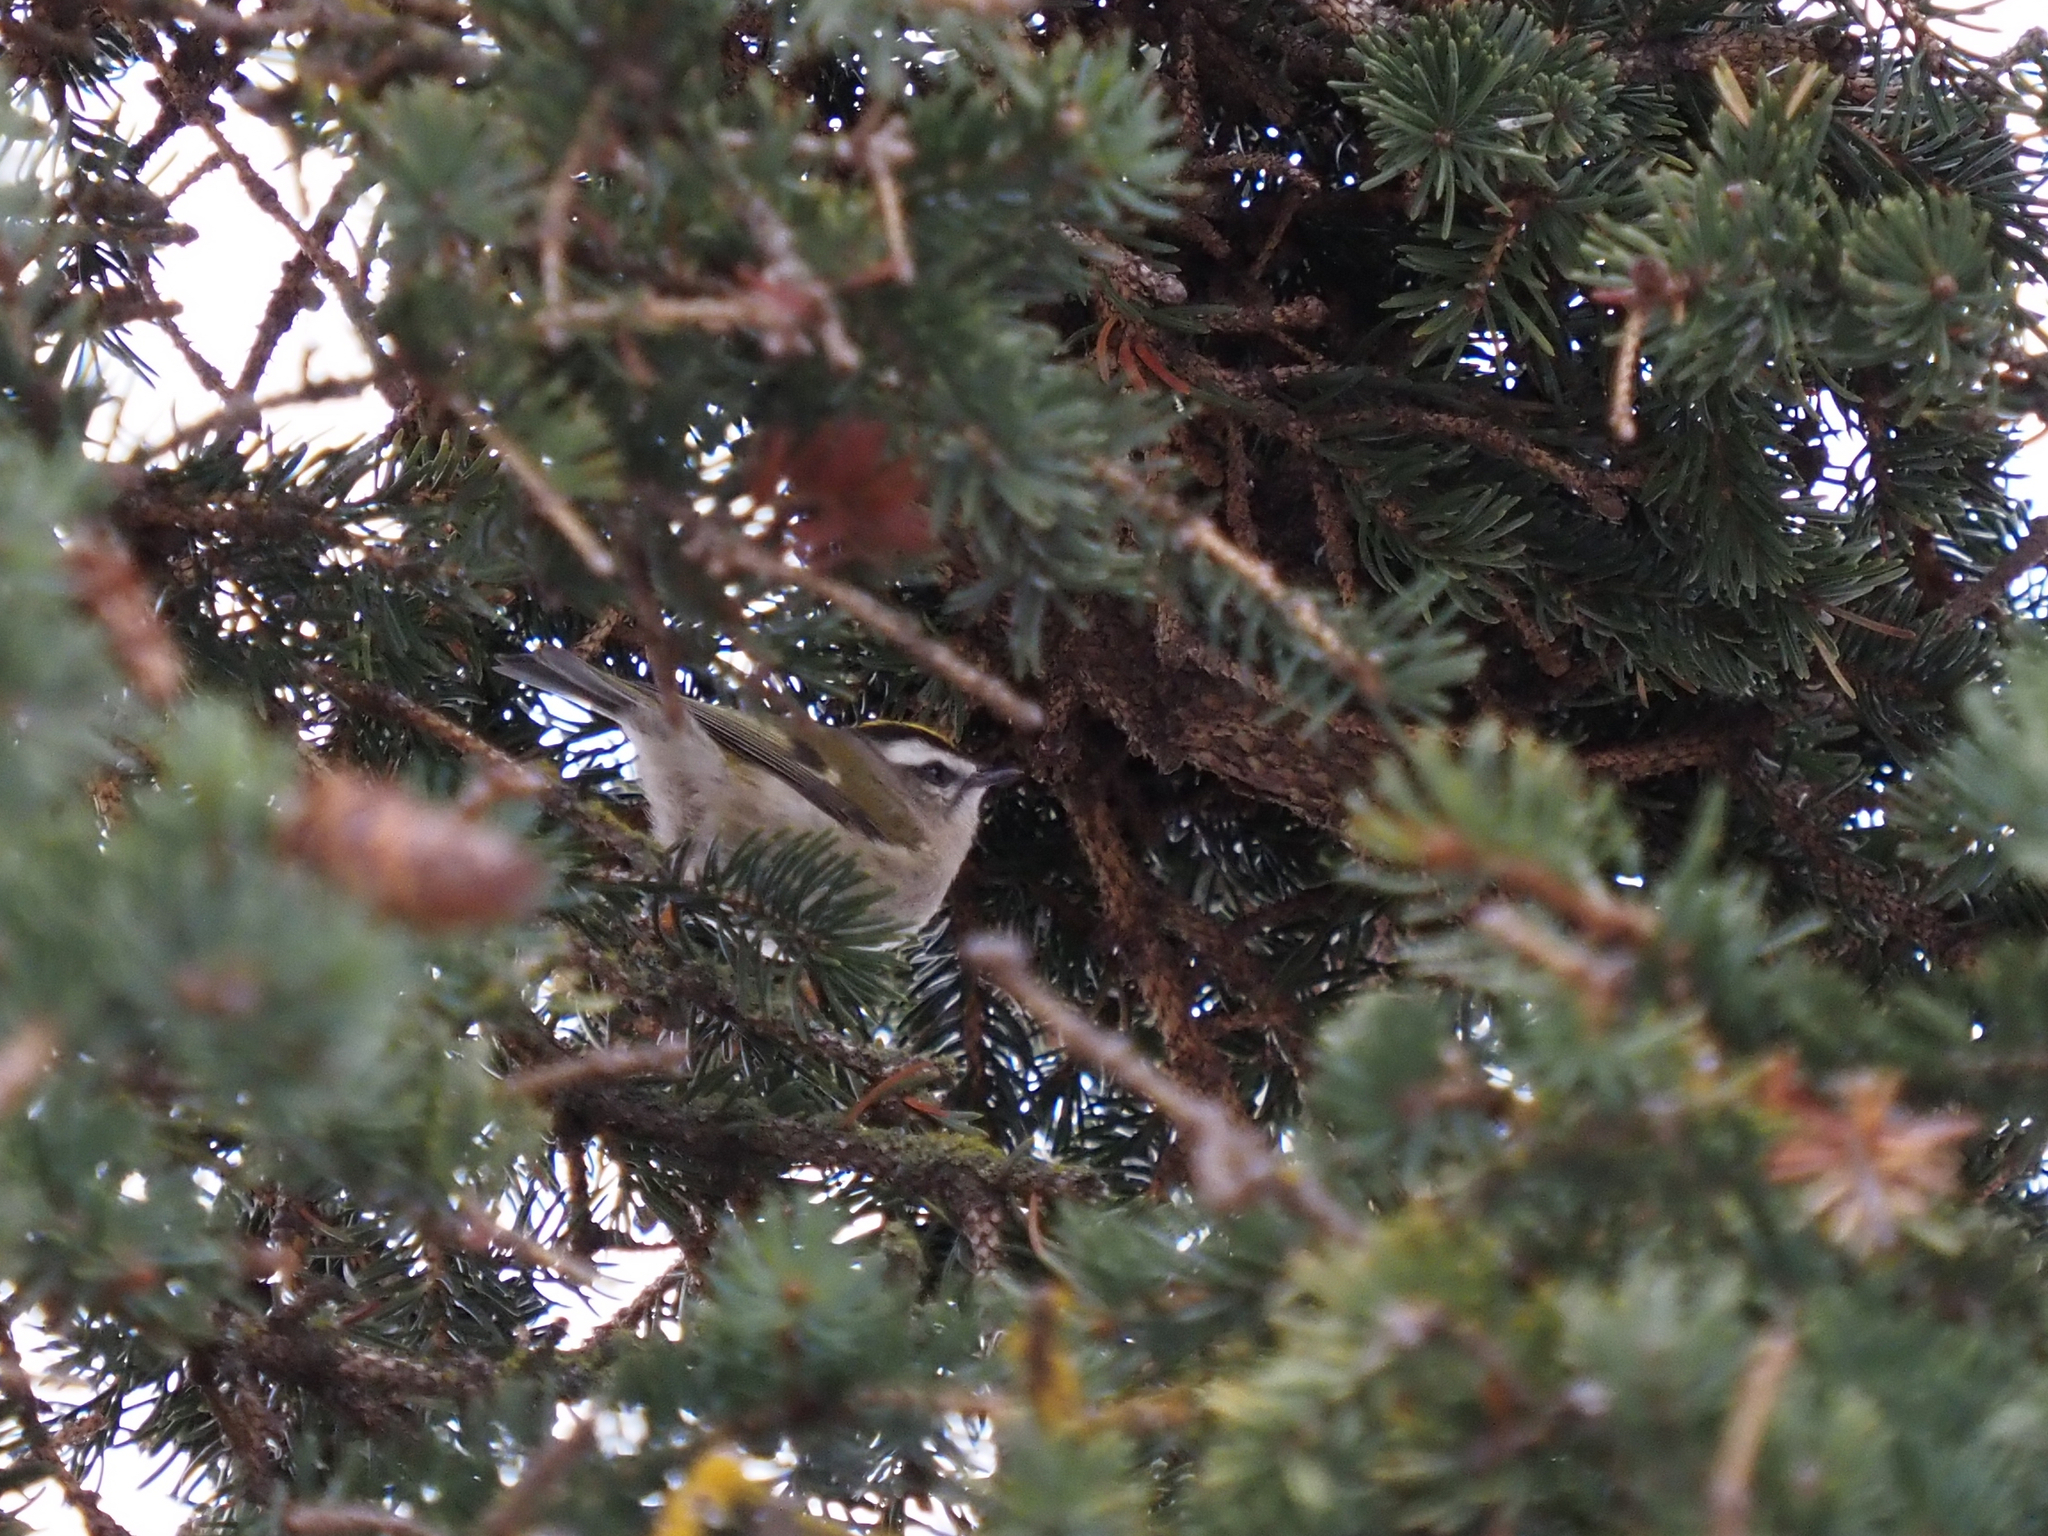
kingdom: Animalia
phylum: Chordata
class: Aves
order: Passeriformes
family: Regulidae
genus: Regulus
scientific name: Regulus satrapa
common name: Golden-crowned kinglet
